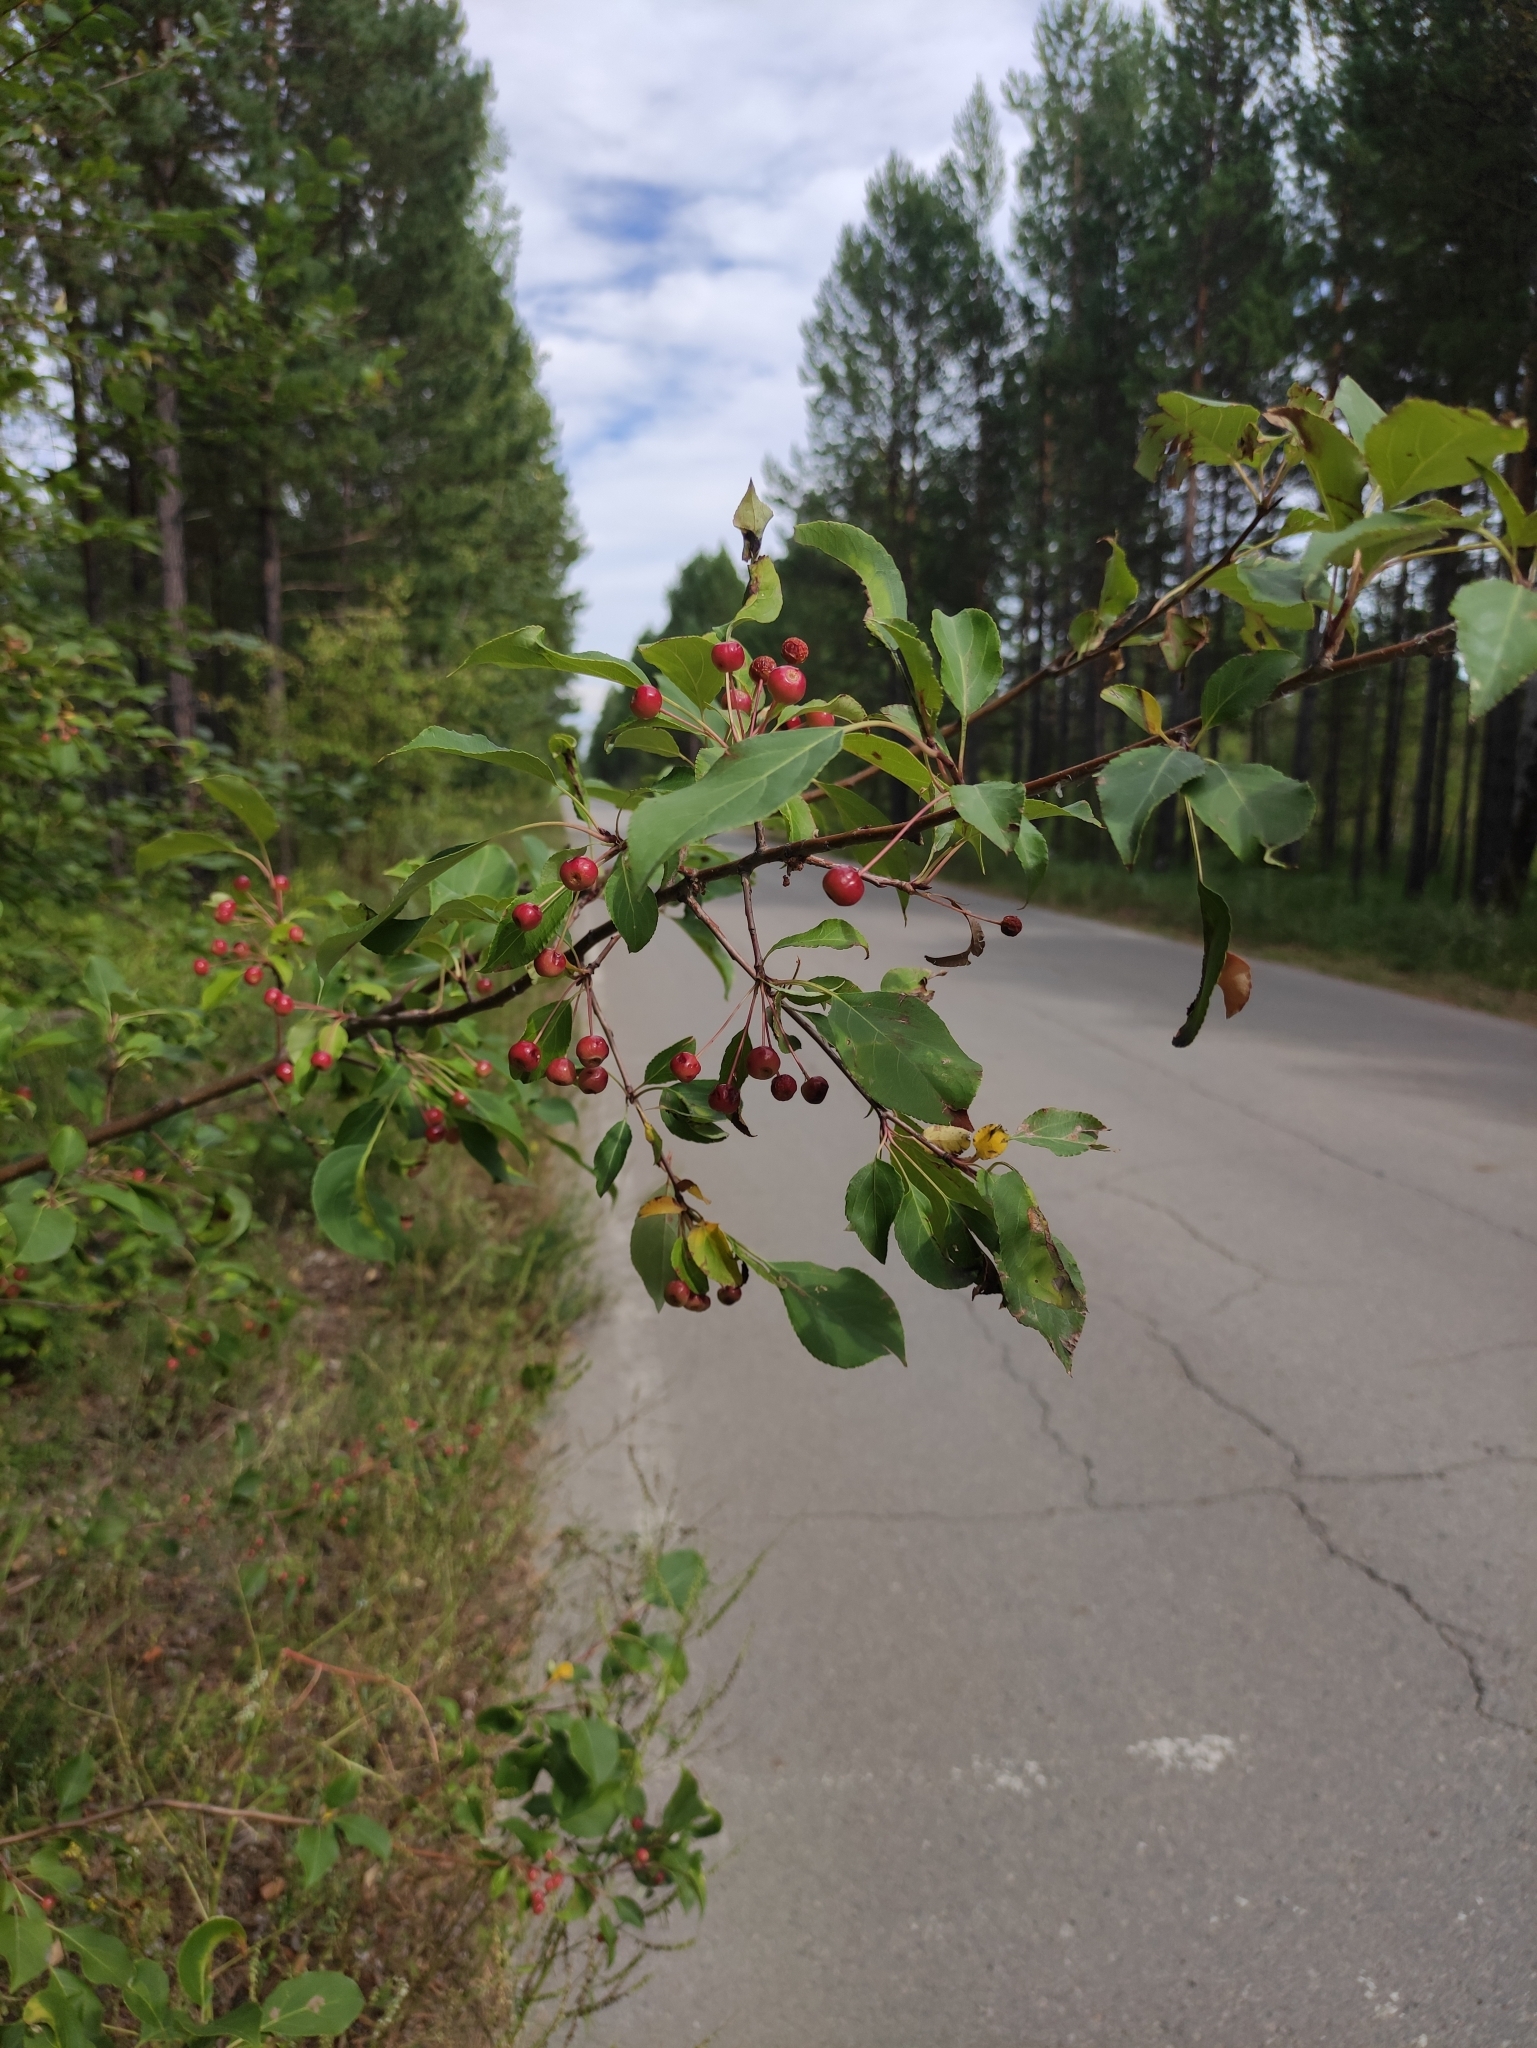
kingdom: Plantae
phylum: Tracheophyta
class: Magnoliopsida
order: Rosales
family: Rosaceae
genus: Malus
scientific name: Malus baccata
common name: Siberian crab
